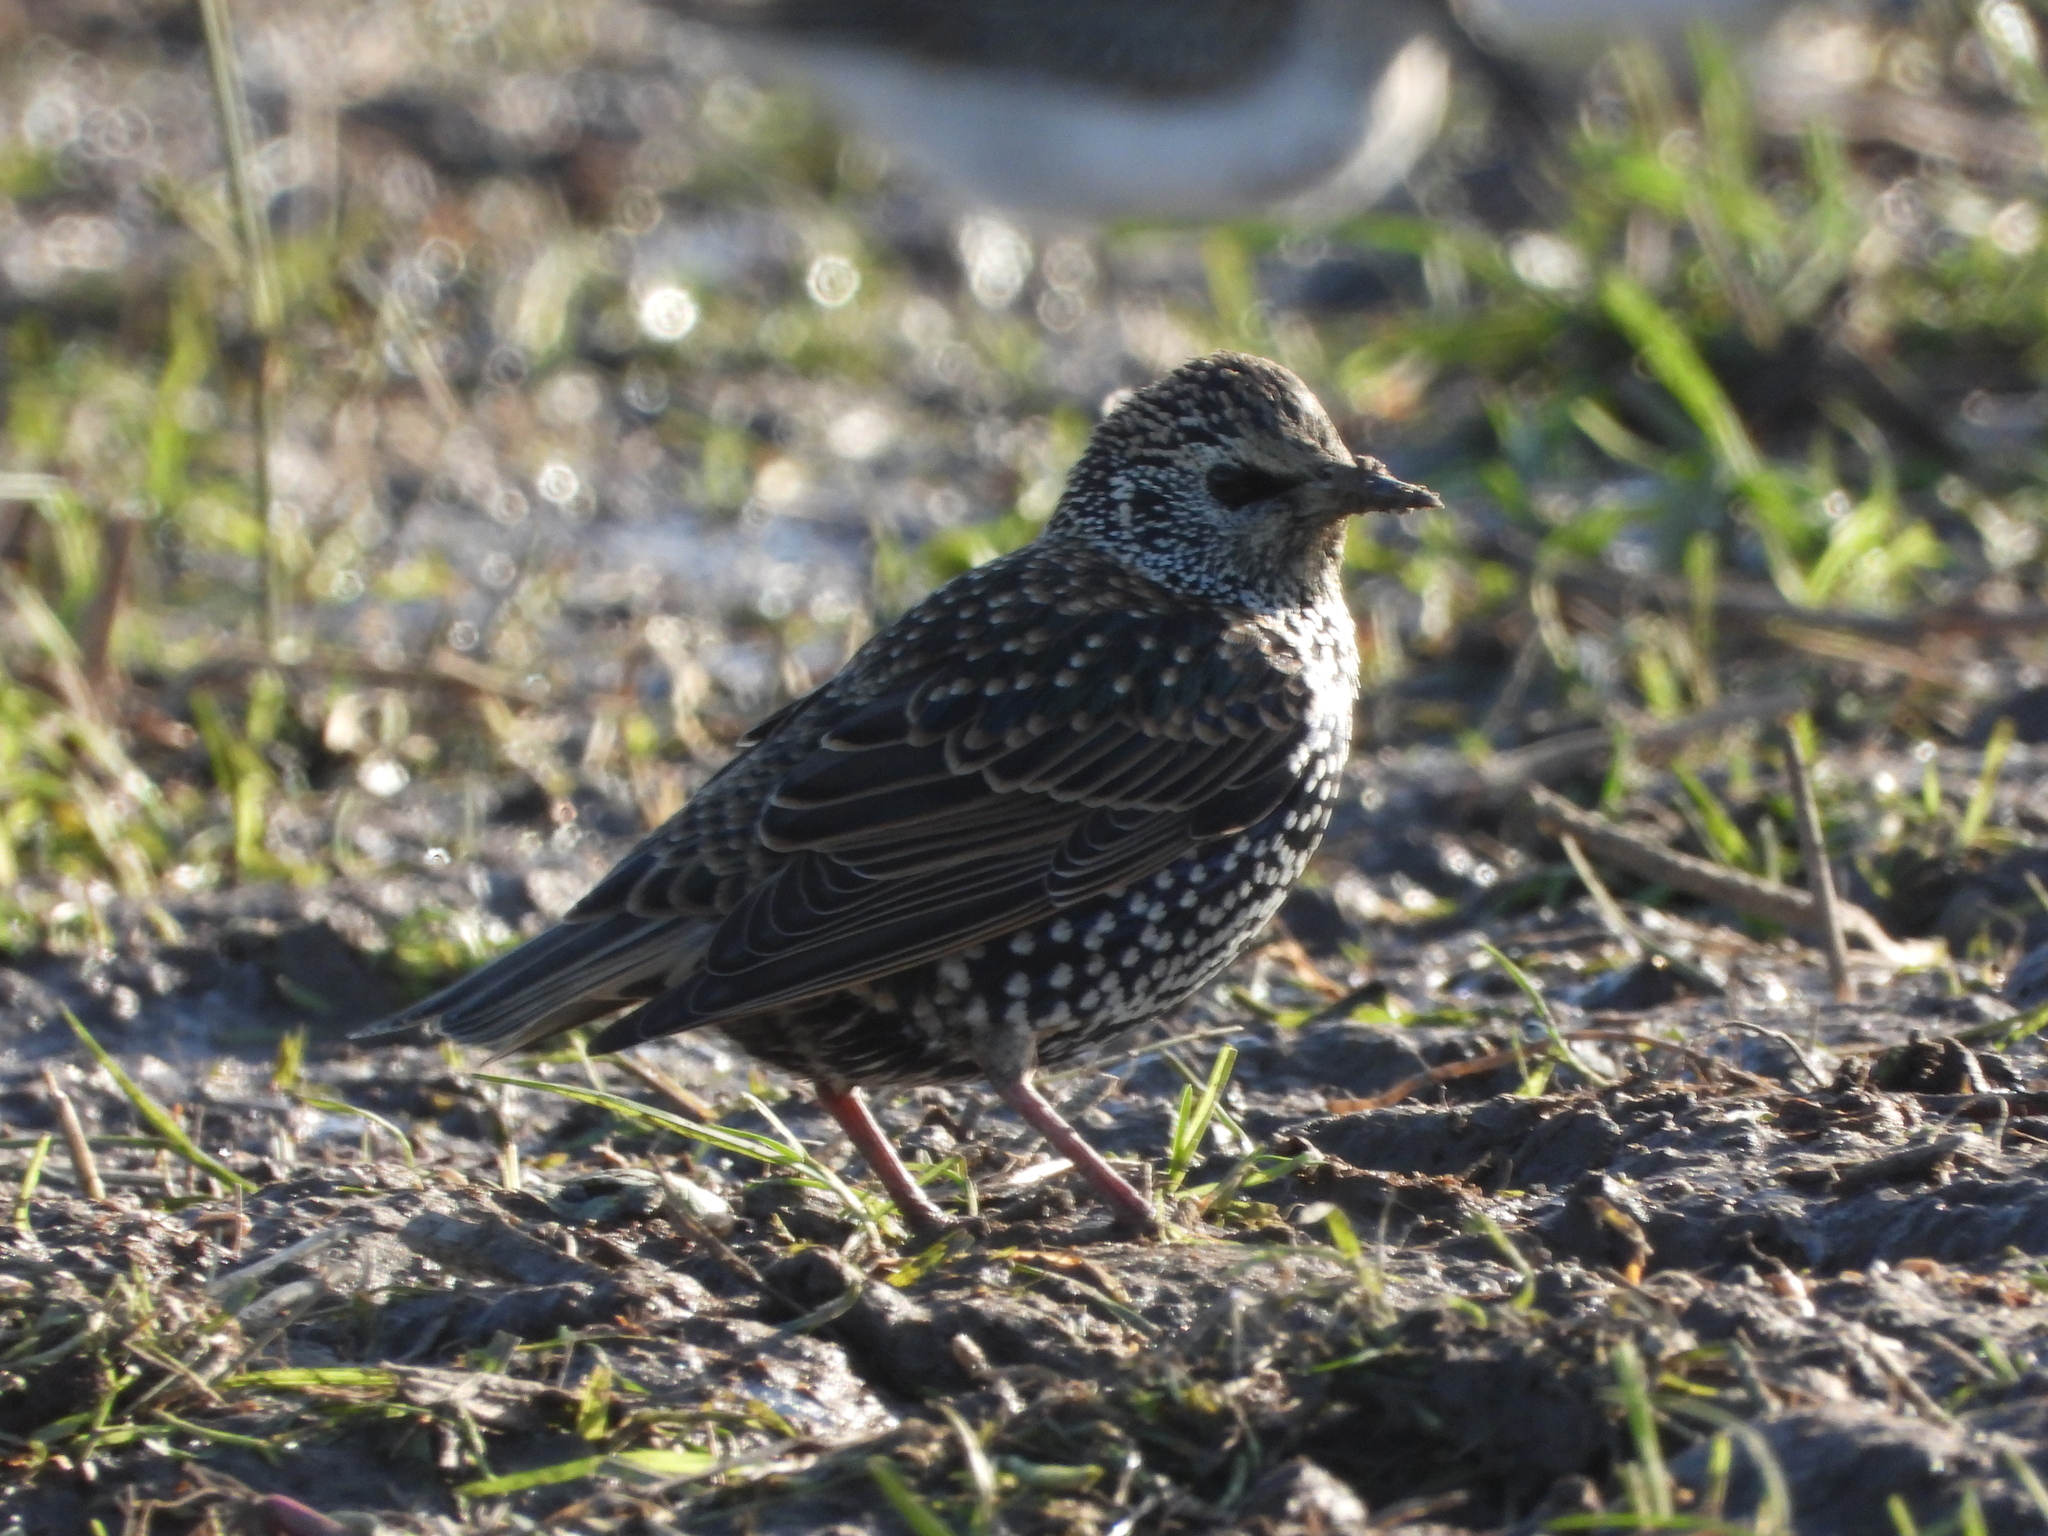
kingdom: Animalia
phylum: Chordata
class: Aves
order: Passeriformes
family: Sturnidae
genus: Sturnus
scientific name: Sturnus vulgaris
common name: Common starling
